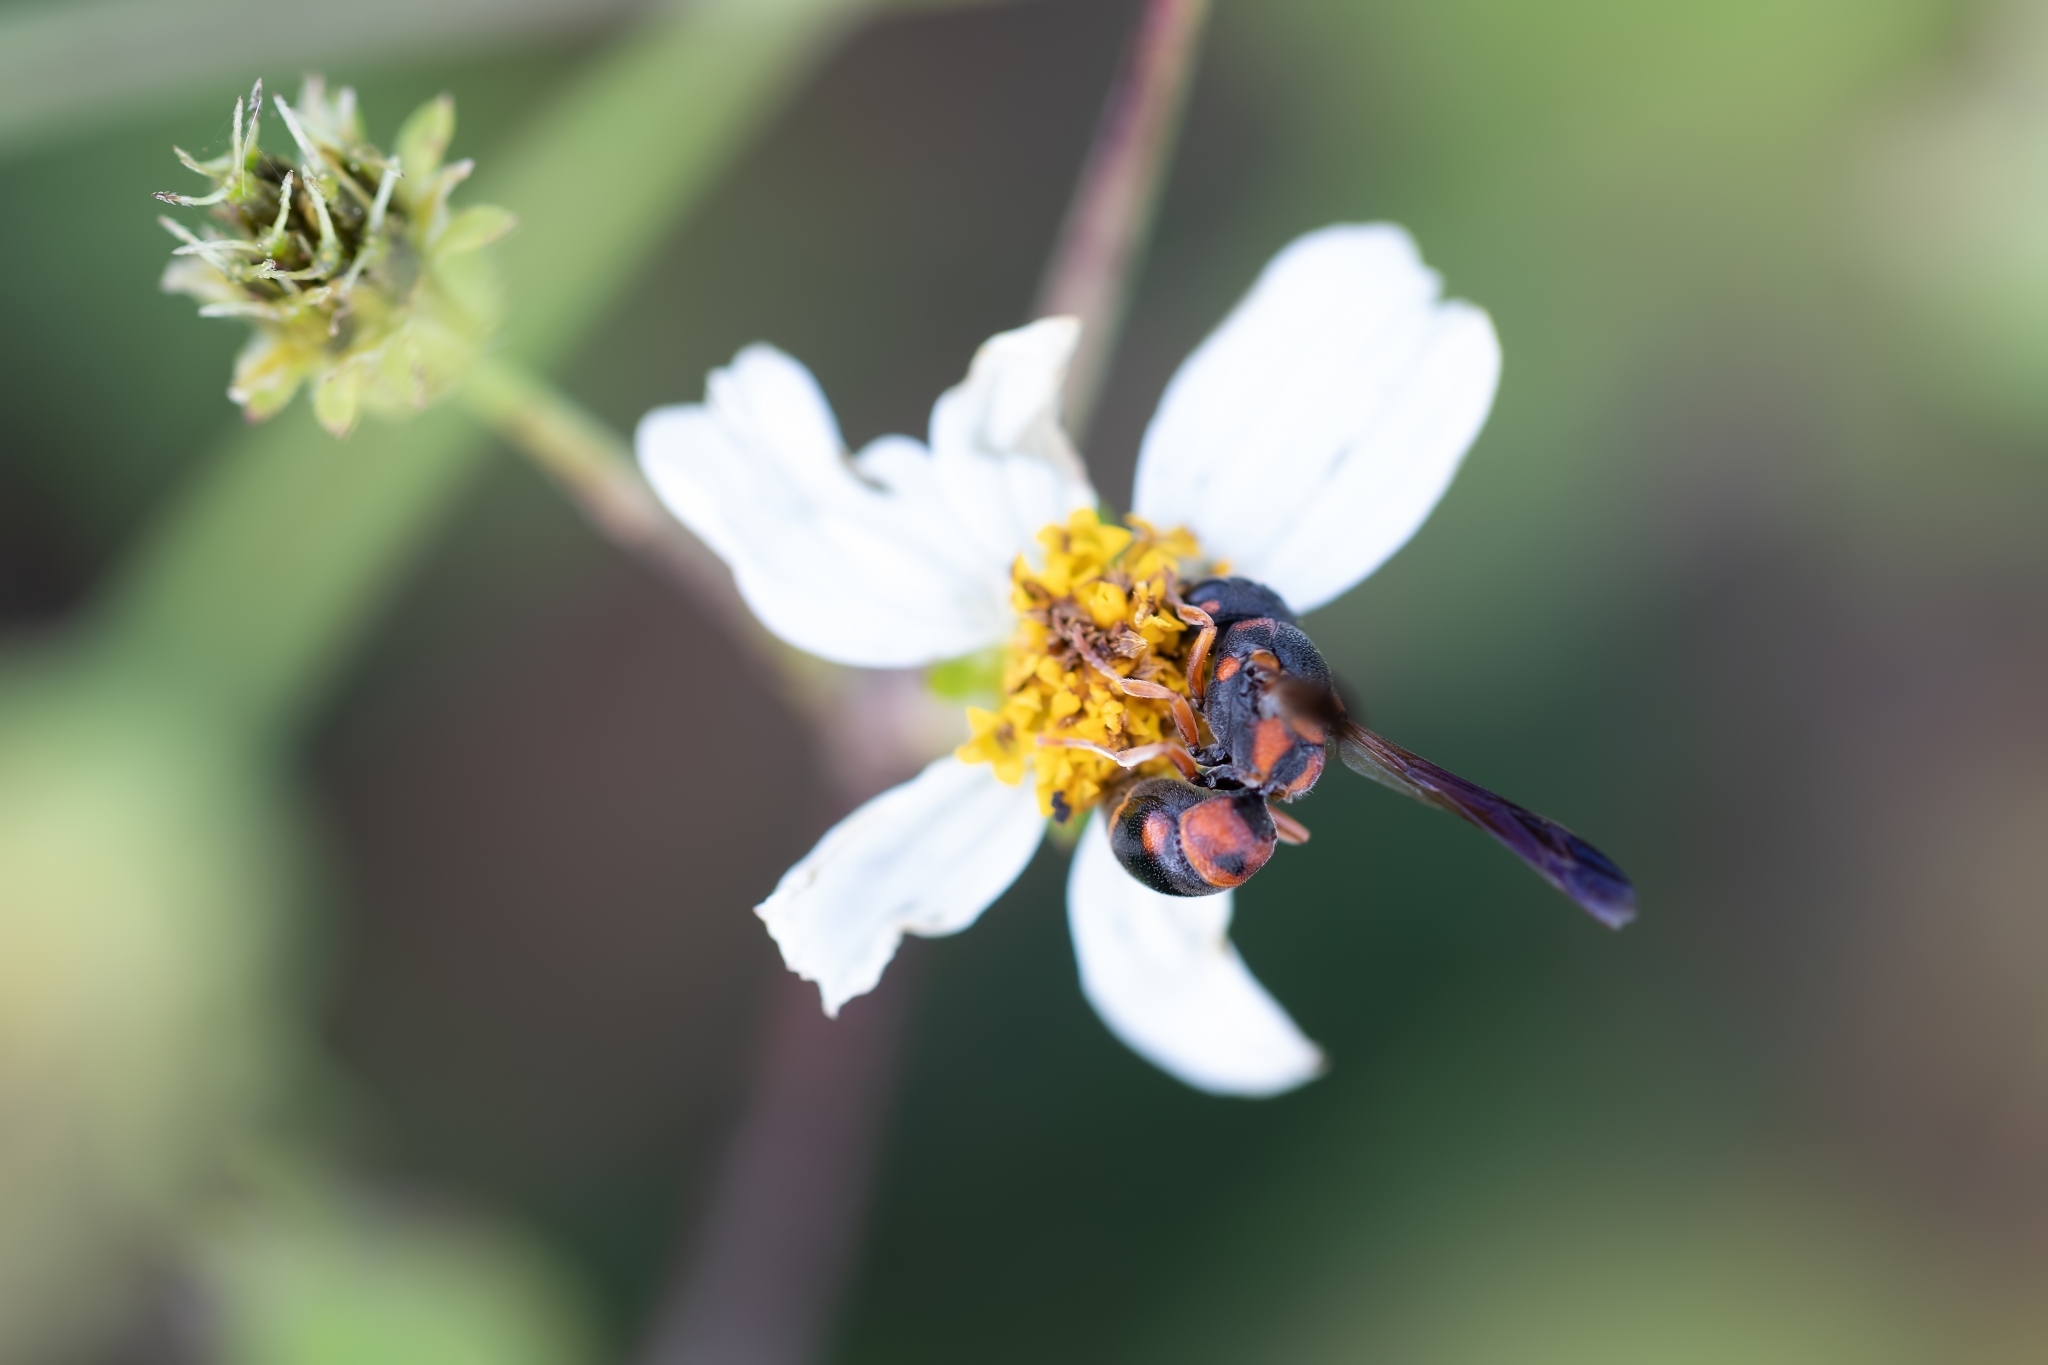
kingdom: Animalia
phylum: Arthropoda
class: Insecta
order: Hymenoptera
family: Eumenidae
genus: Stenodynerus
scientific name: Stenodynerus
